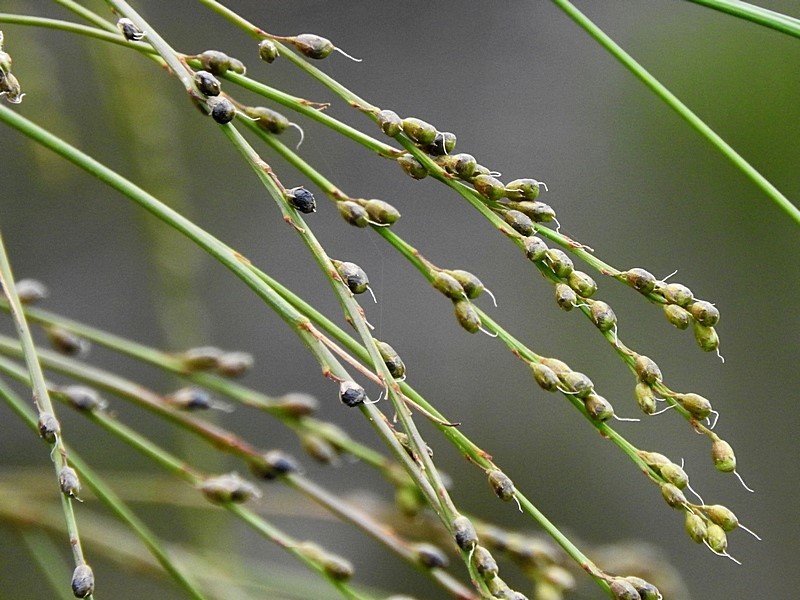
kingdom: Plantae
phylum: Tracheophyta
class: Magnoliopsida
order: Fabales
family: Fabaceae
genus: Viminaria
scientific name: Viminaria juncea
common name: Golden spray
